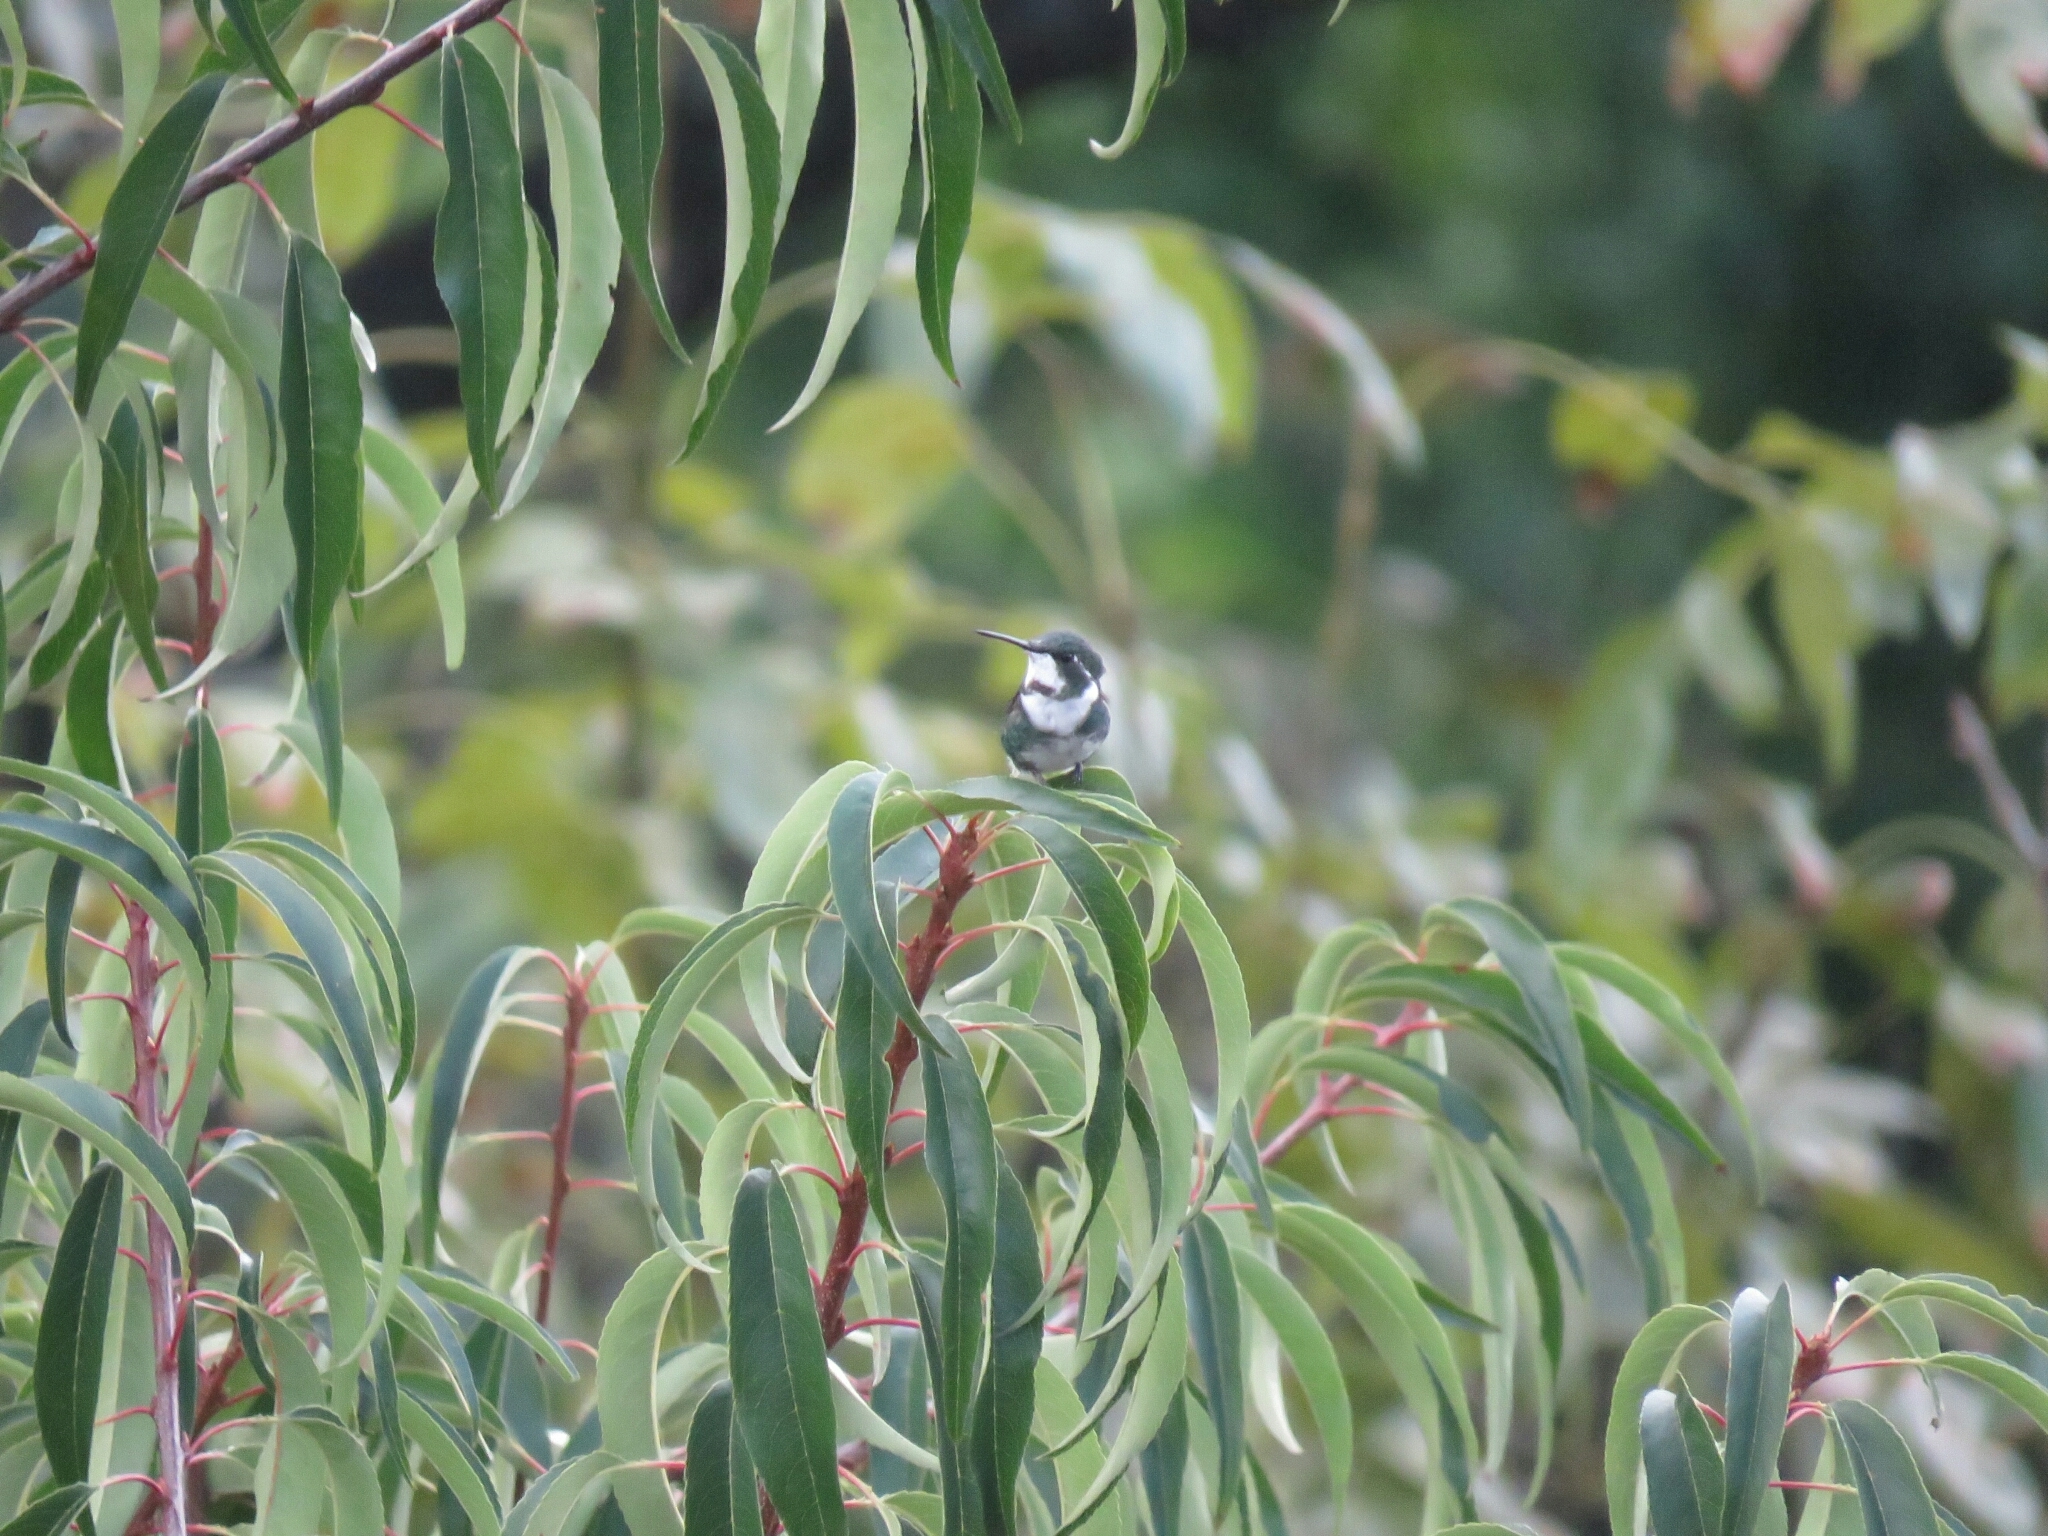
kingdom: Animalia
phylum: Chordata
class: Aves
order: Apodiformes
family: Trochilidae
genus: Chaetocercus
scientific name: Chaetocercus mulsant
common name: White-bellied woodstar
